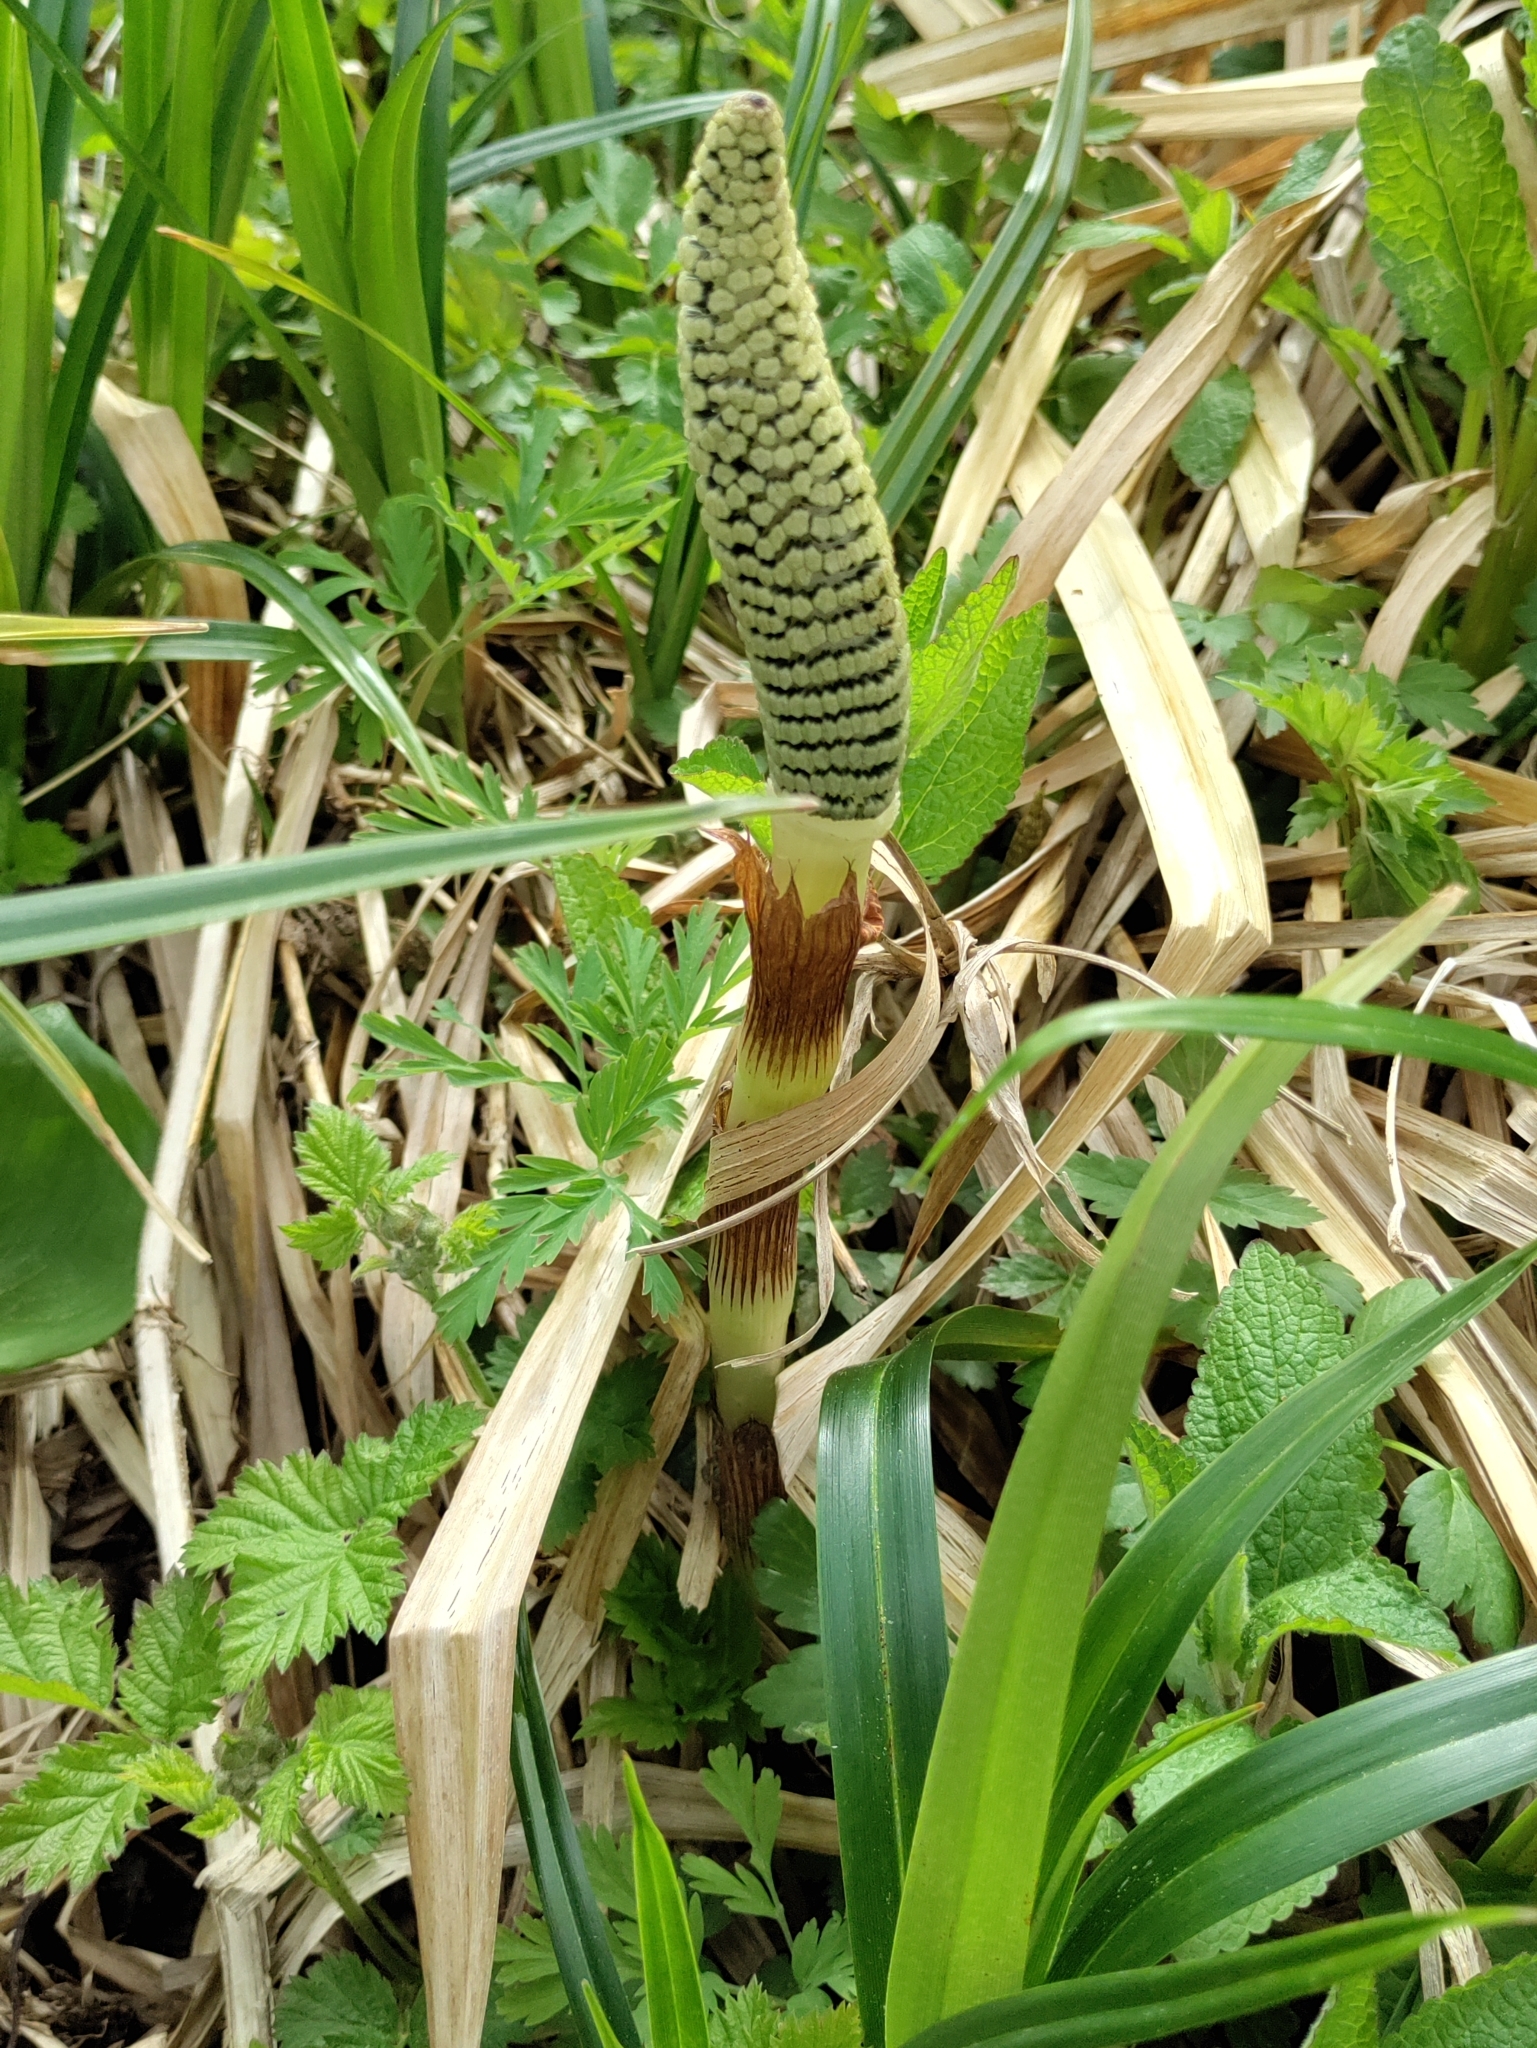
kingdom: Plantae
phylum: Tracheophyta
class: Polypodiopsida
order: Equisetales
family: Equisetaceae
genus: Equisetum
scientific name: Equisetum telmateia
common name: Great horsetail
